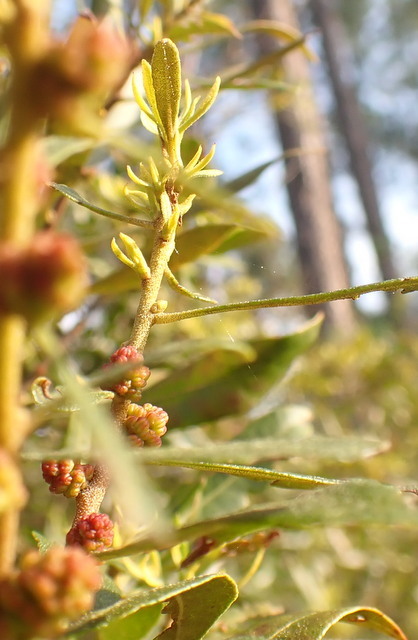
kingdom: Plantae
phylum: Tracheophyta
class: Magnoliopsida
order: Fagales
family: Myricaceae
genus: Morella
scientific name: Morella cerifera
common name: Wax myrtle
